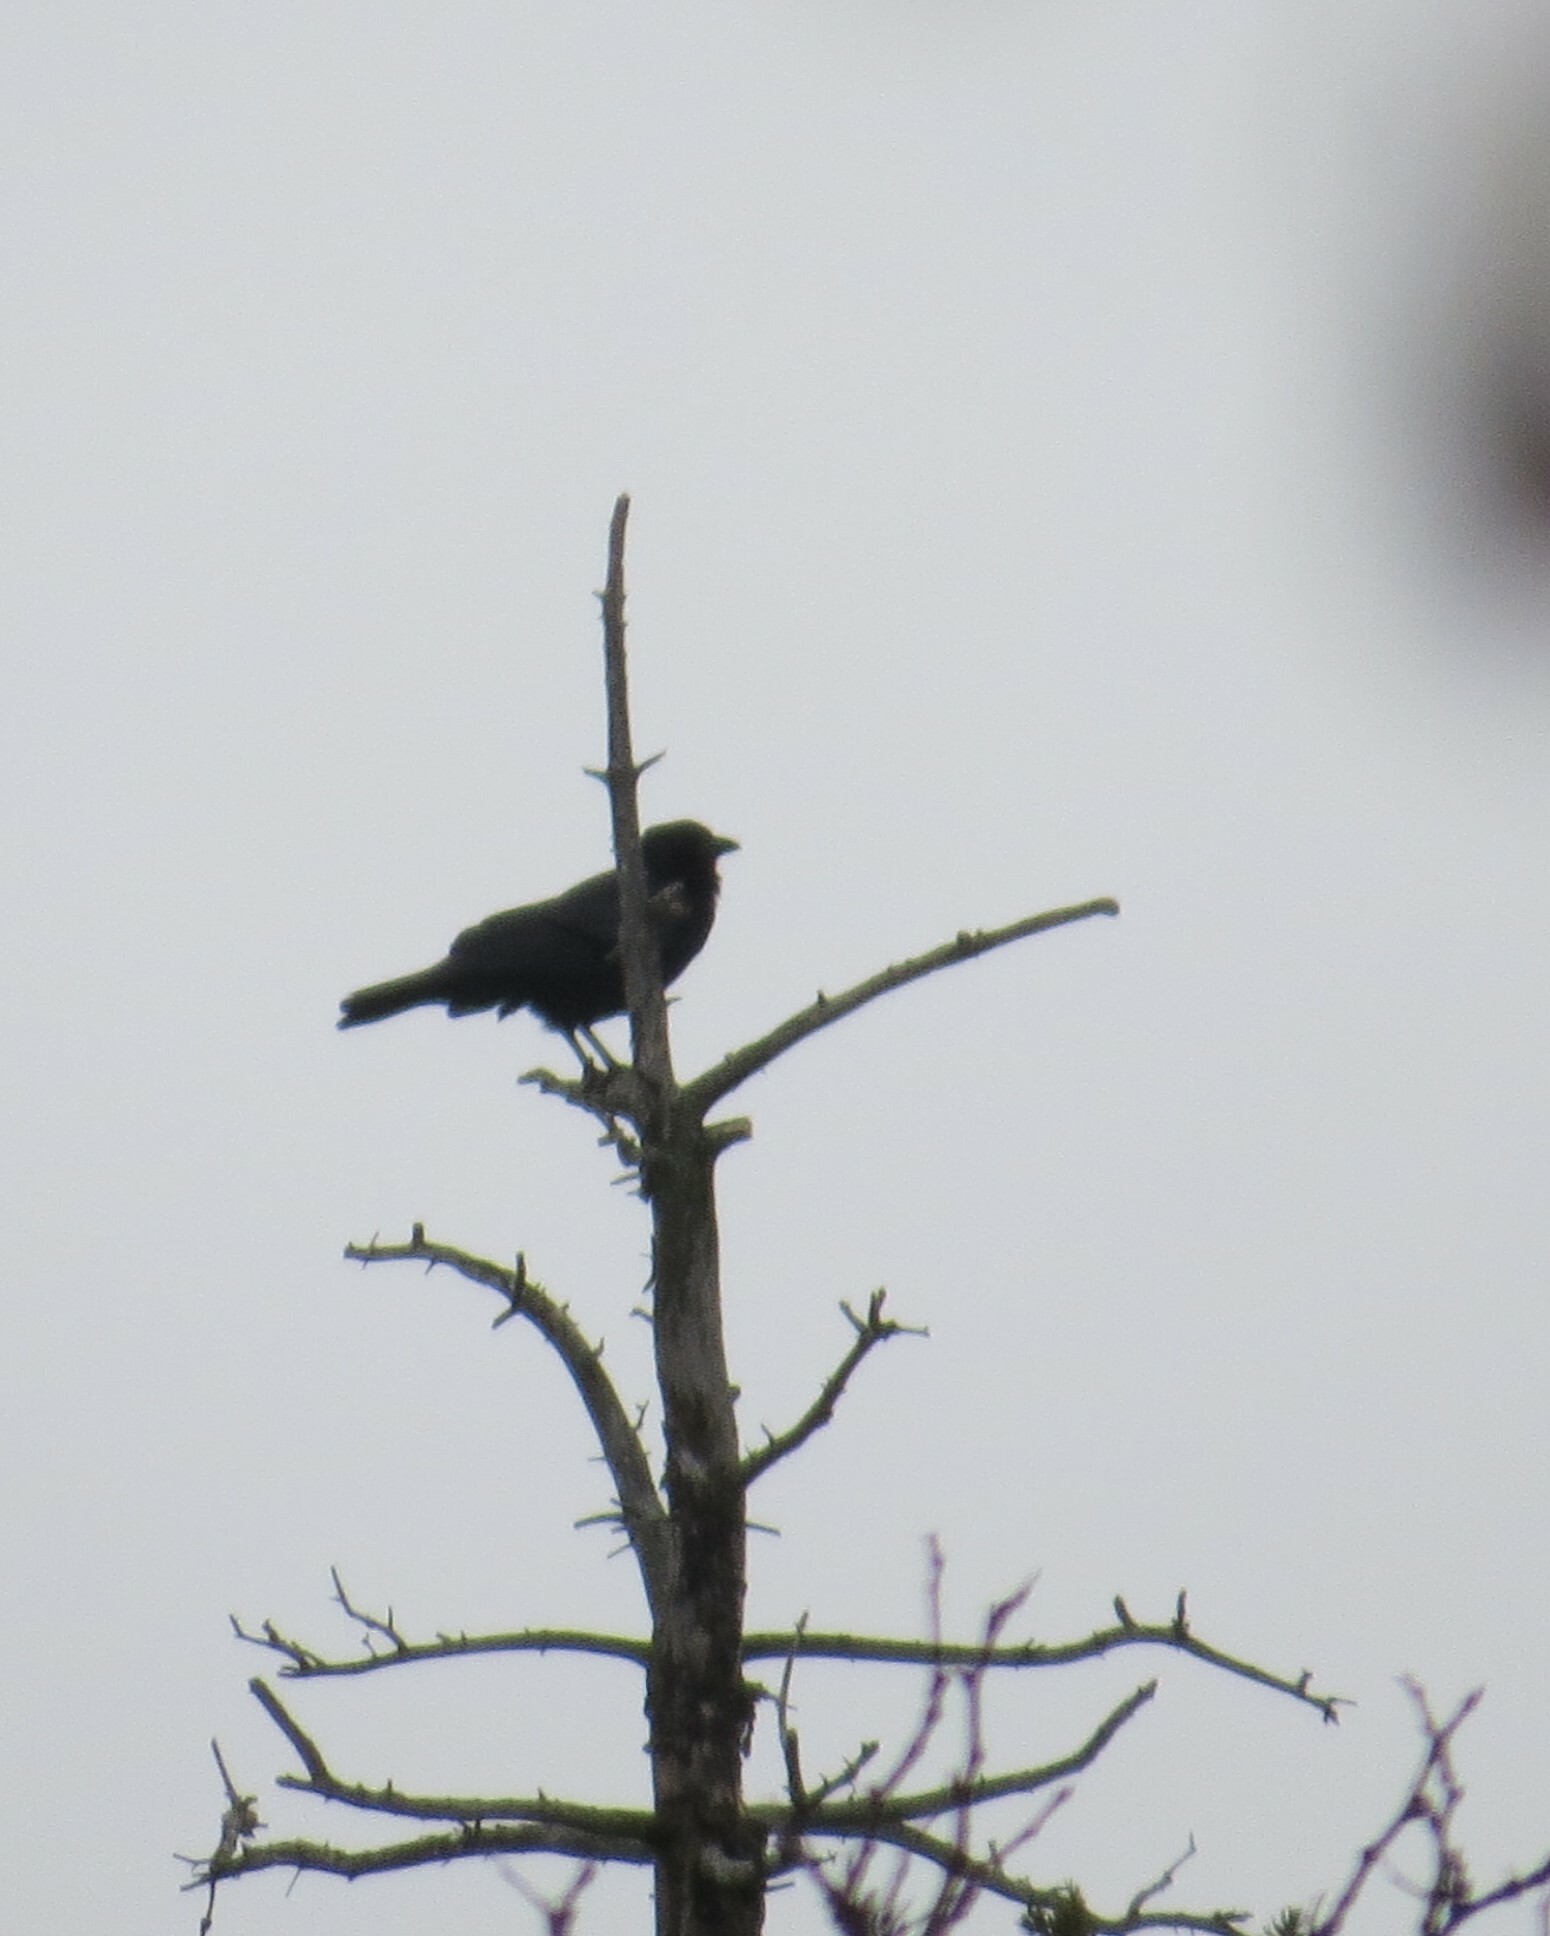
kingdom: Animalia
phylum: Chordata
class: Aves
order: Passeriformes
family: Corvidae
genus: Corvus
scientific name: Corvus brachyrhynchos
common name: American crow
